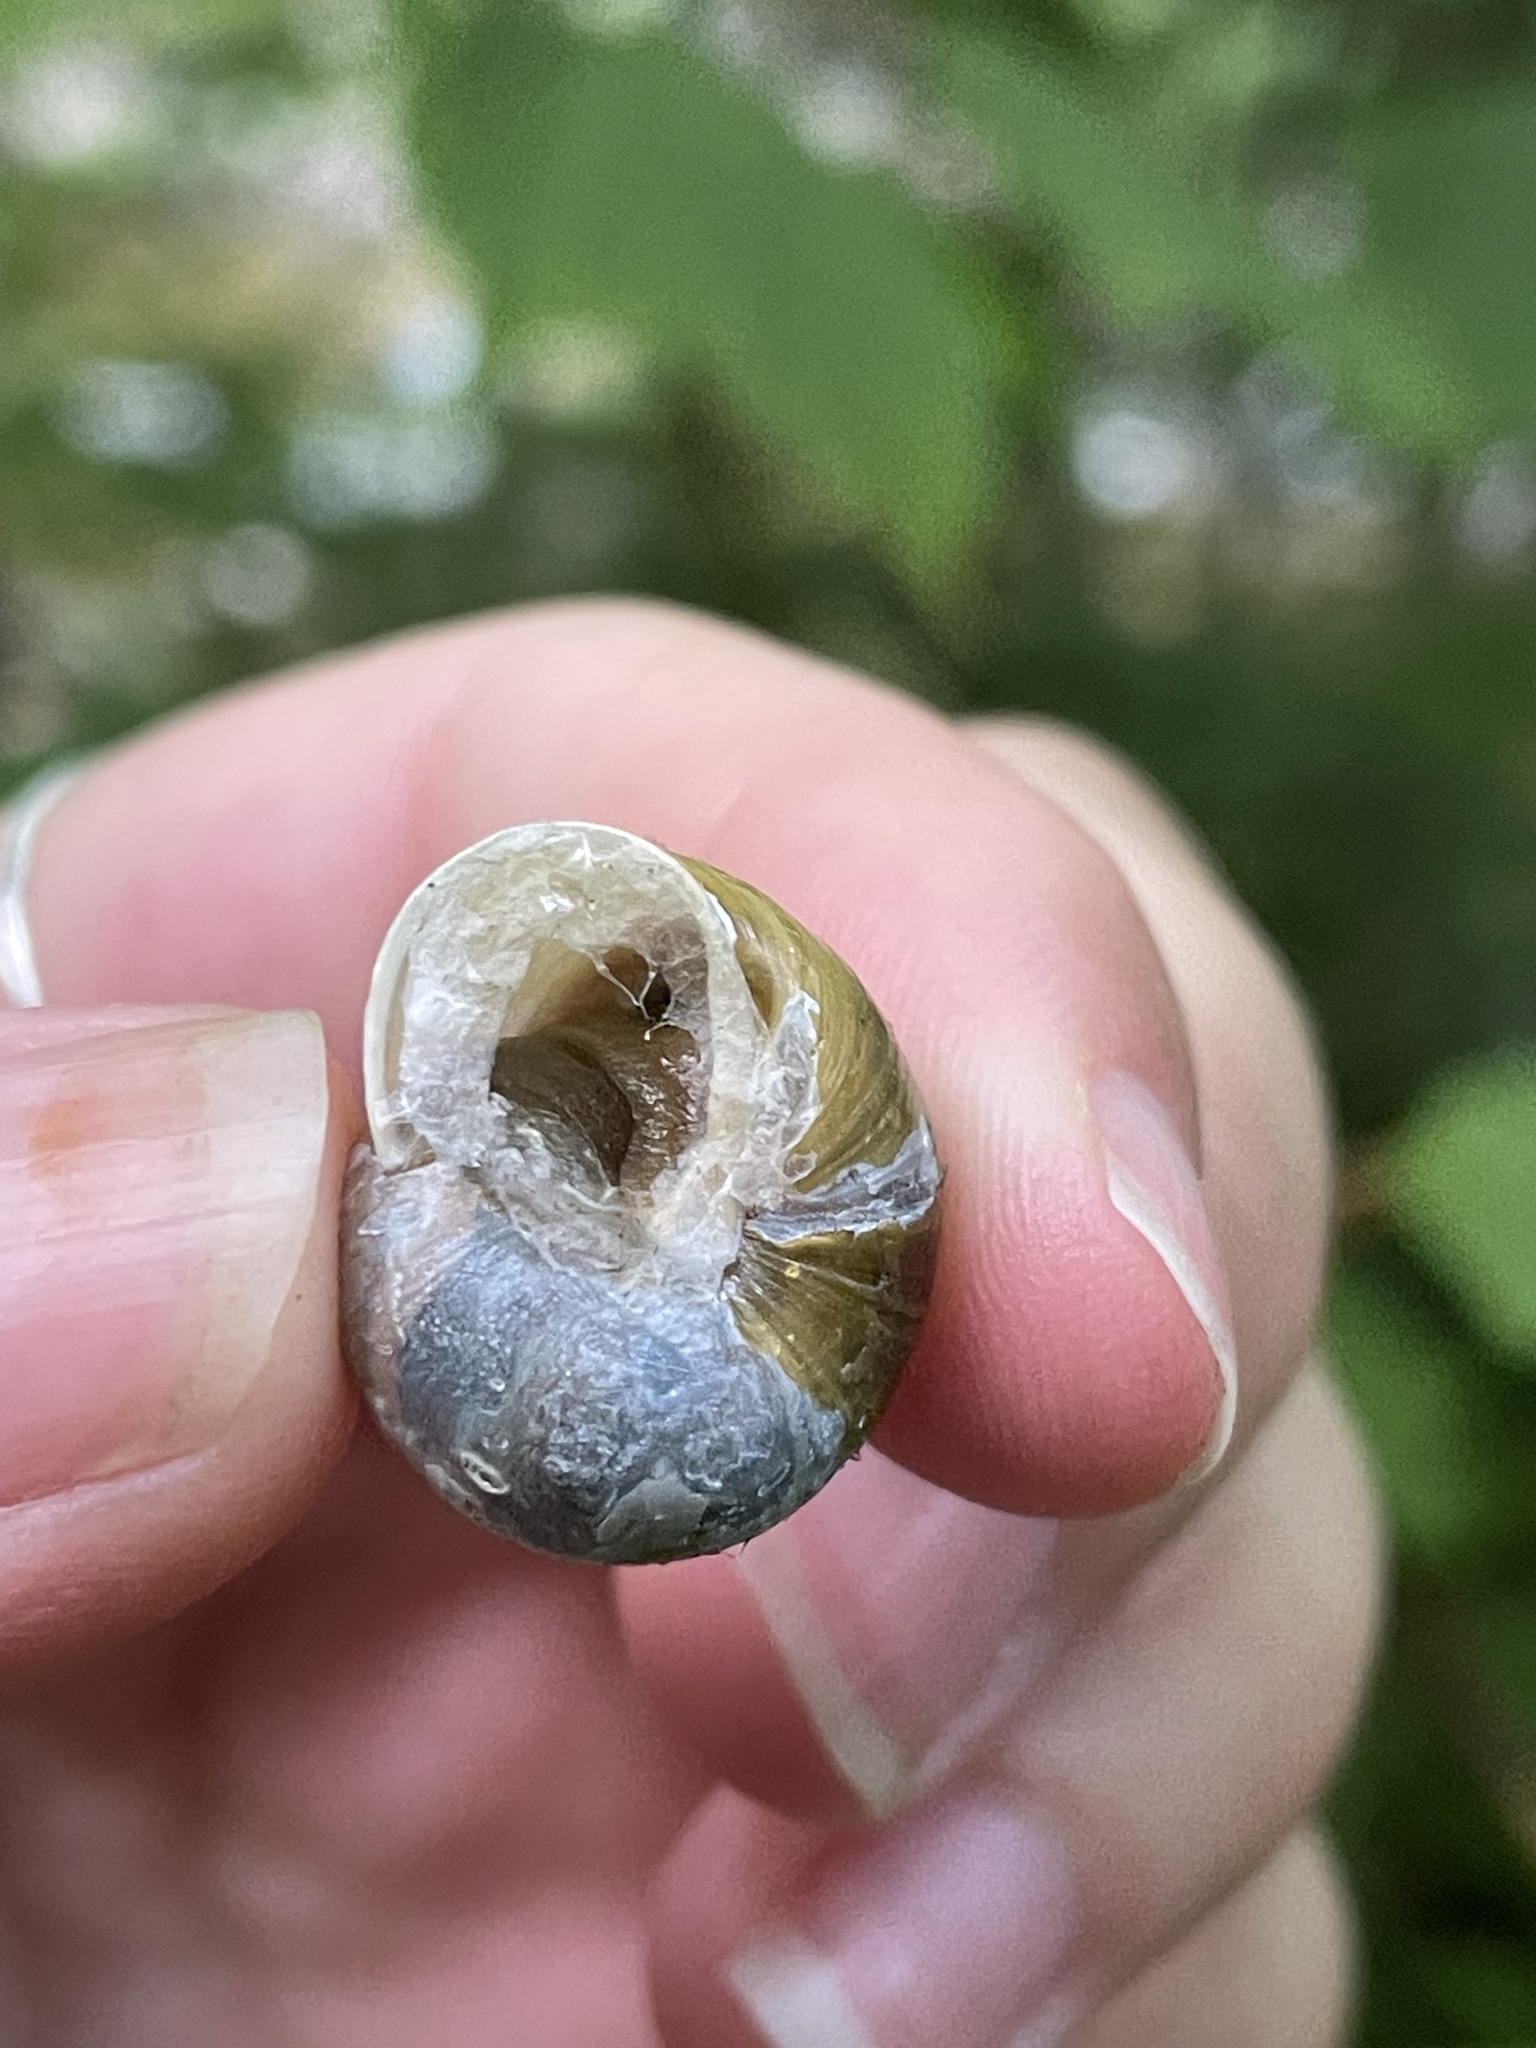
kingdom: Animalia
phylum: Mollusca
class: Gastropoda
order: Stylommatophora
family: Helicidae
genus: Cepaea
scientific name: Cepaea hortensis
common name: White-lip gardensnail
